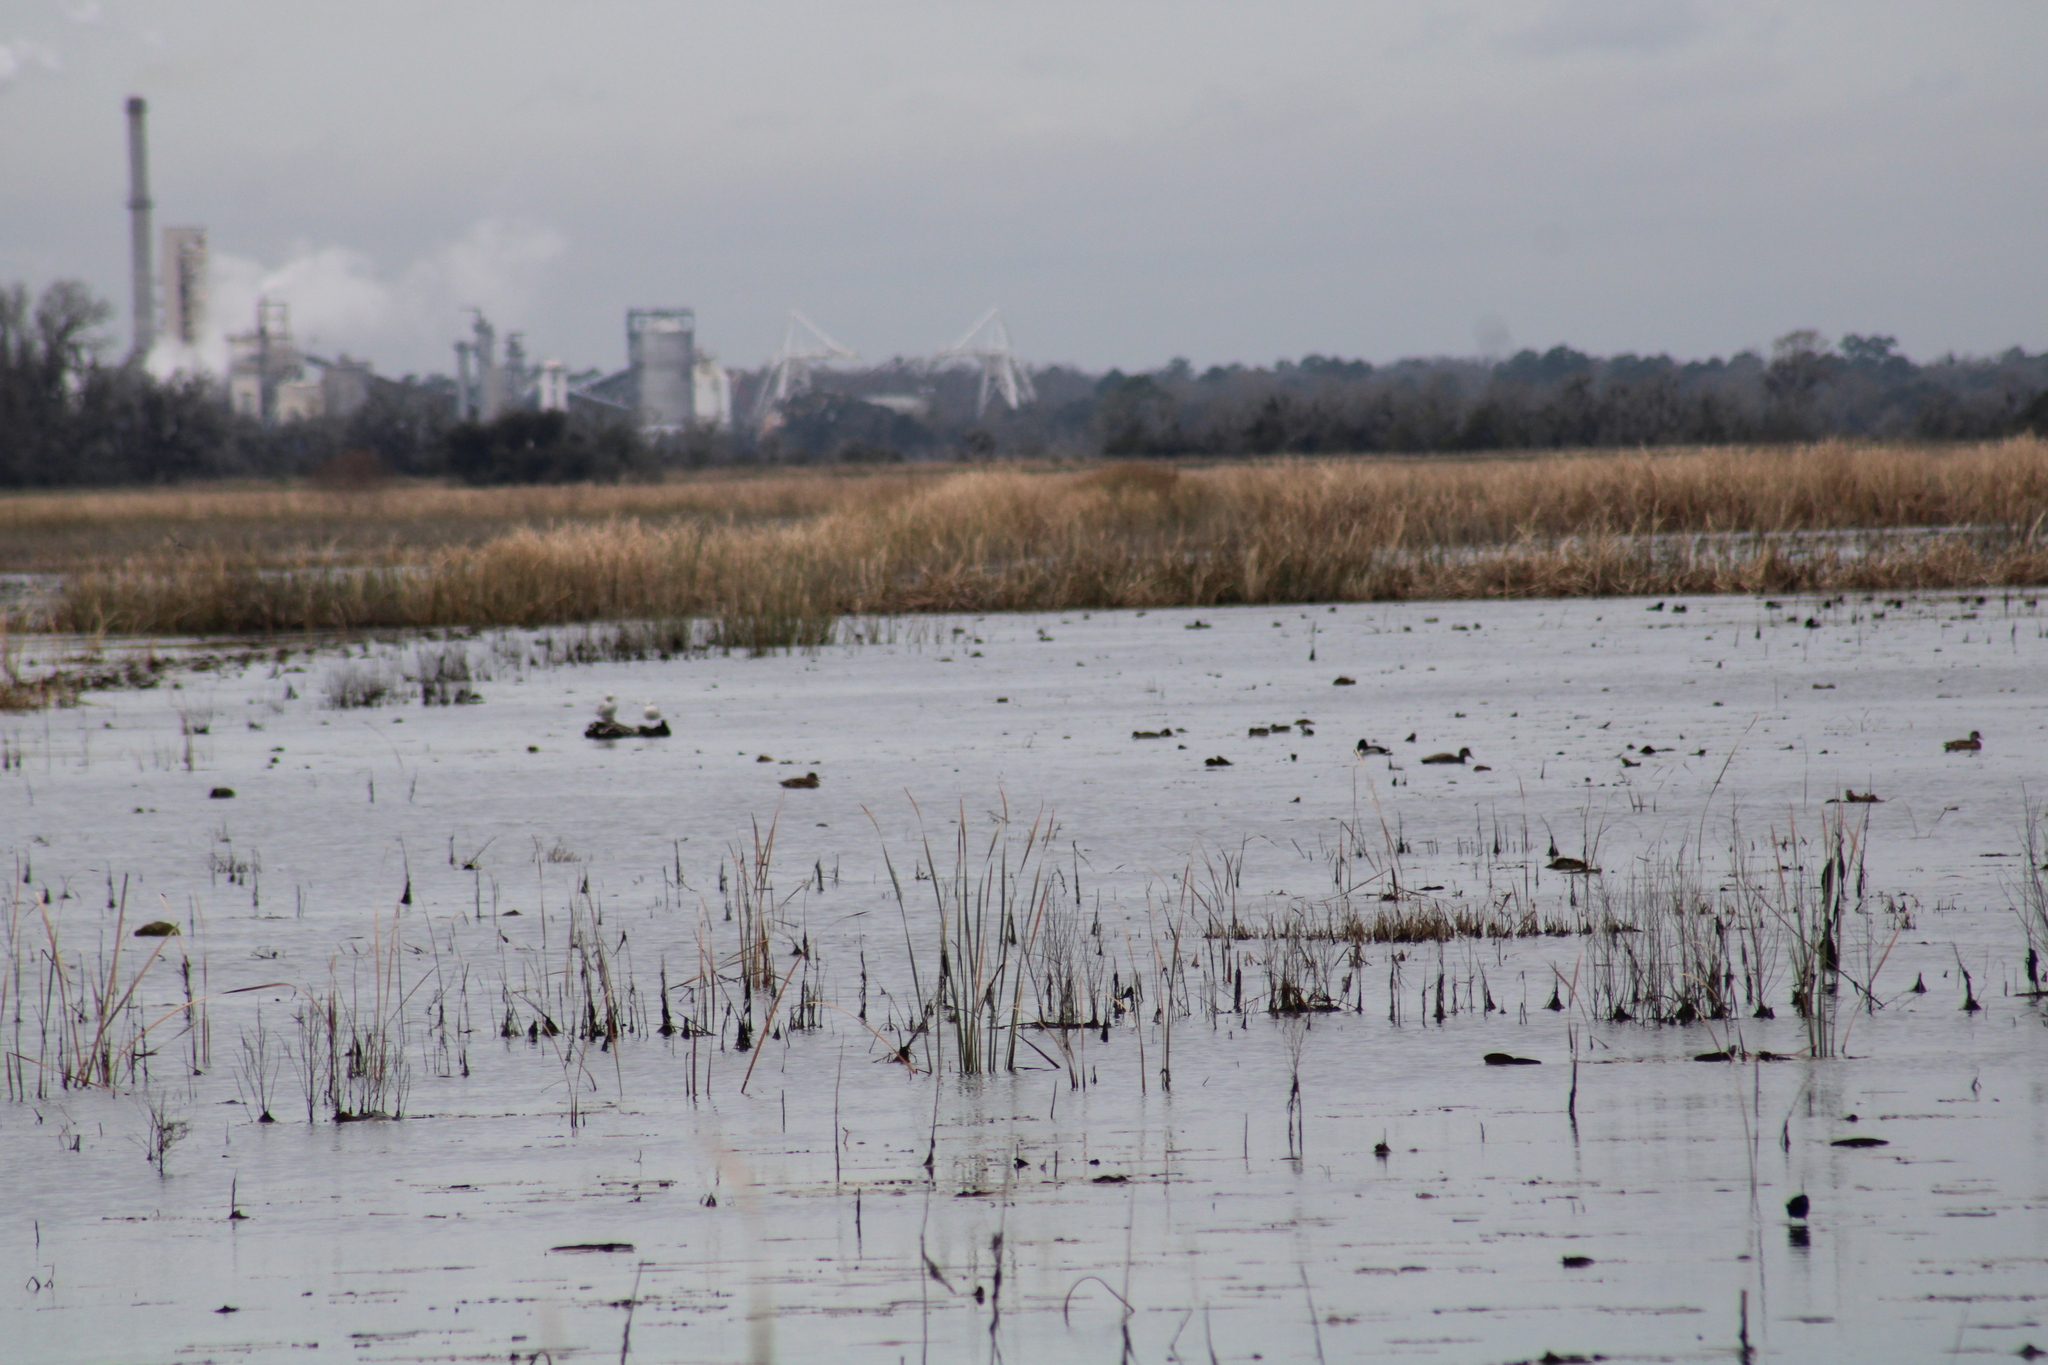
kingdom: Animalia
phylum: Chordata
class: Aves
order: Anseriformes
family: Anatidae
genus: Aythya
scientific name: Aythya collaris
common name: Ring-necked duck
